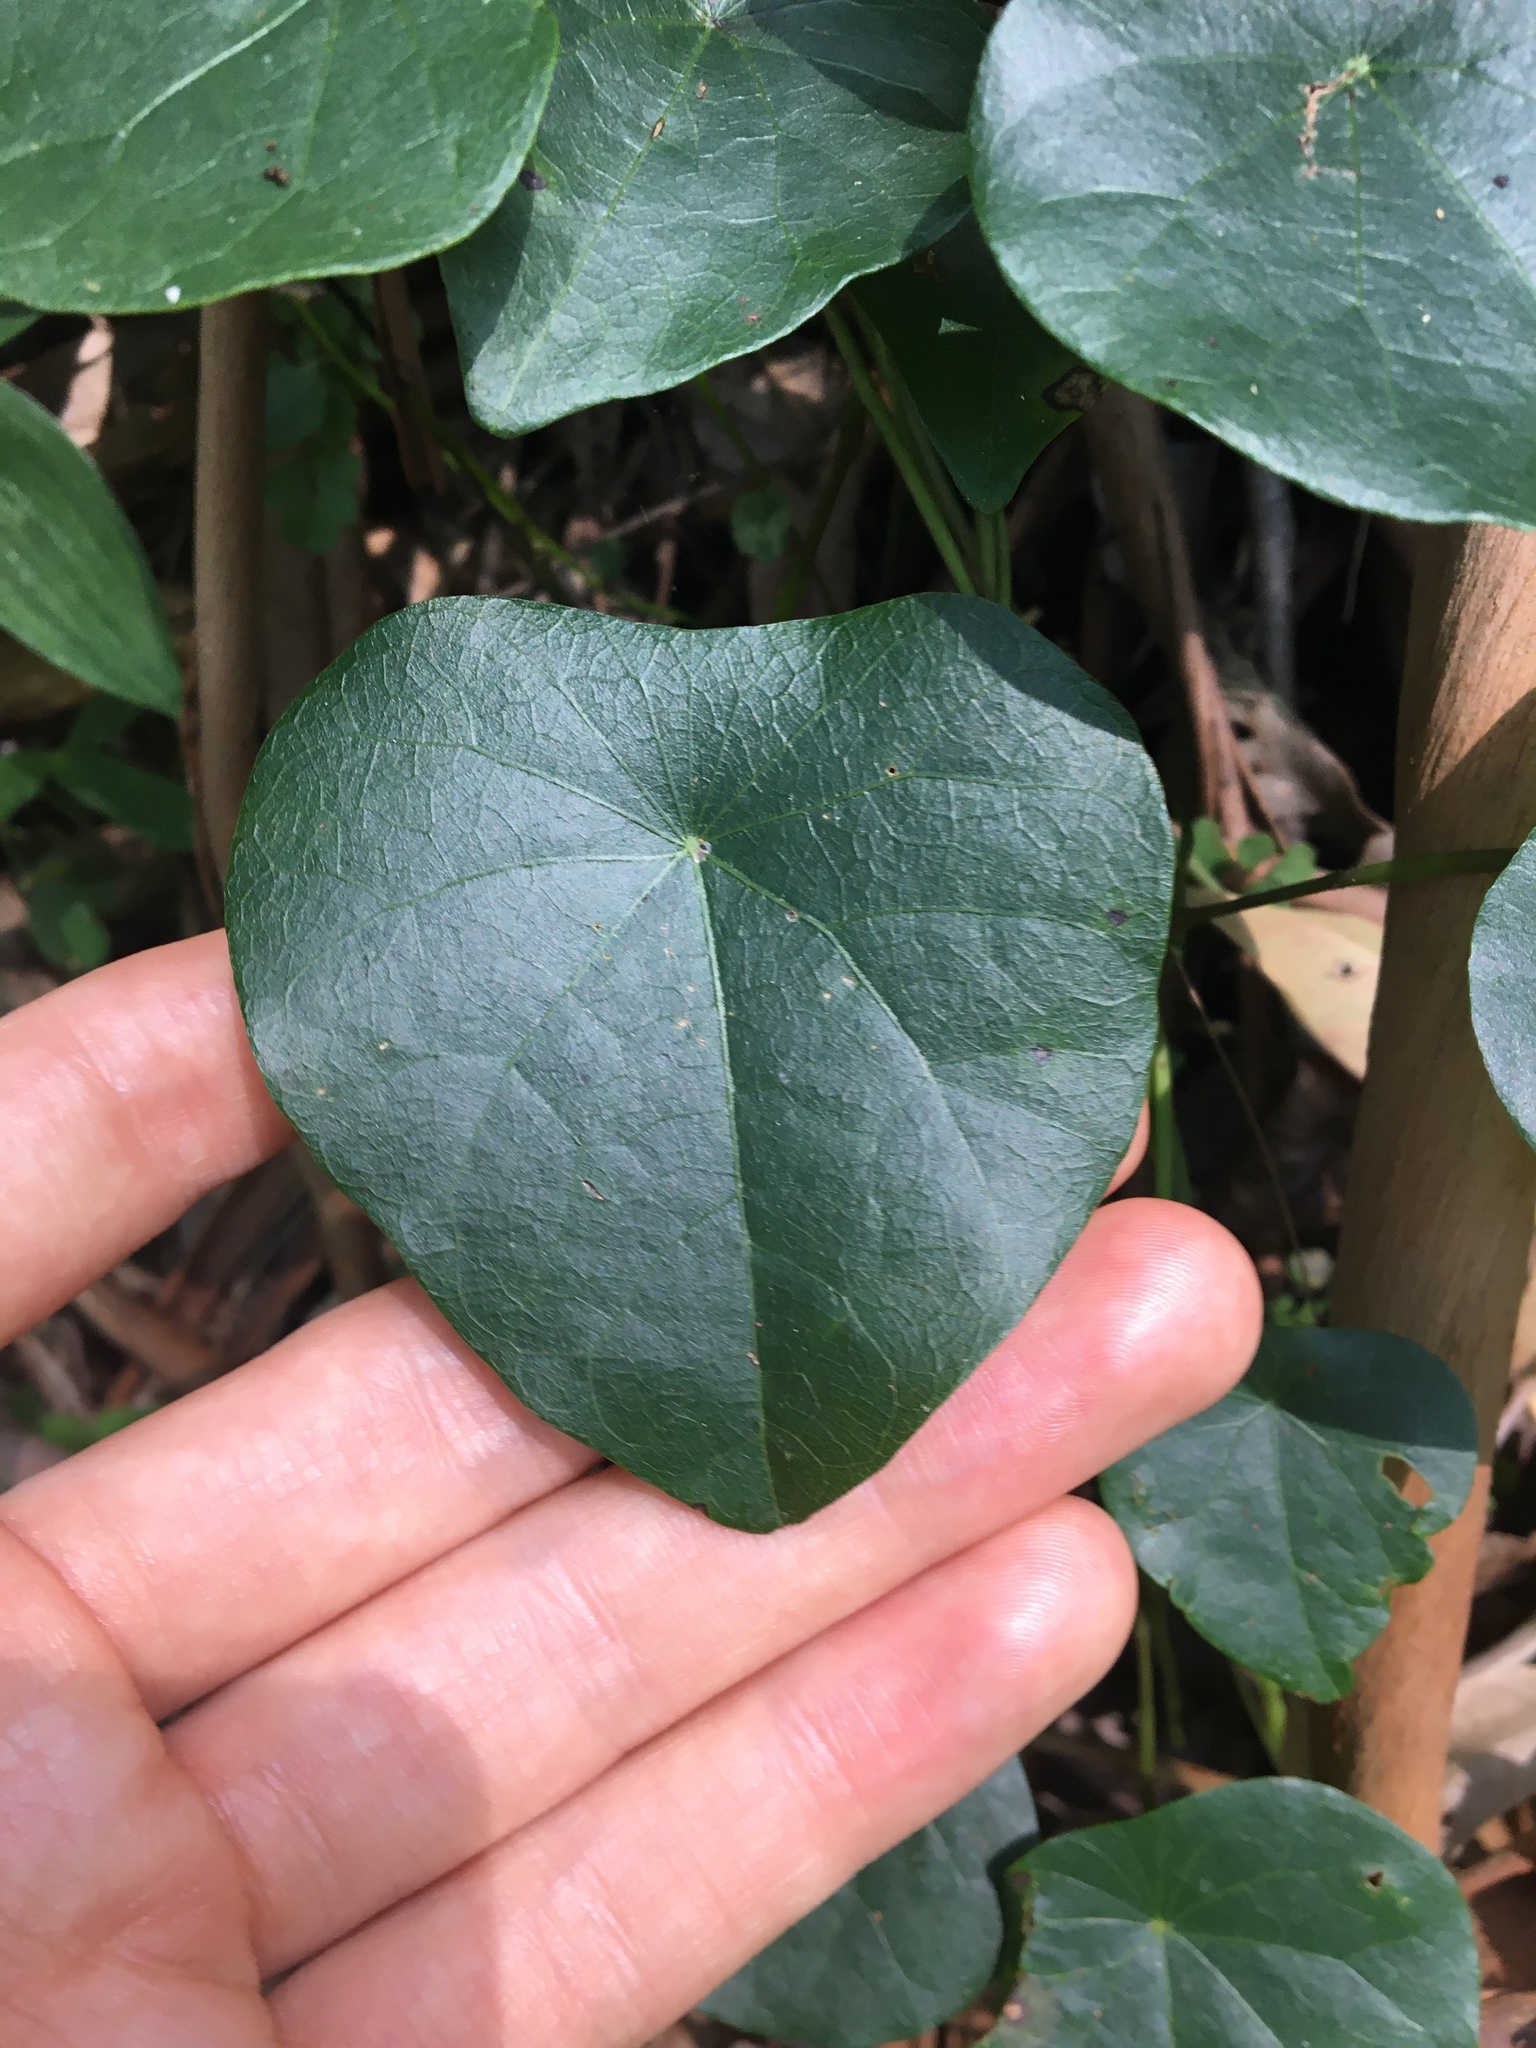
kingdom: Plantae
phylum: Tracheophyta
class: Magnoliopsida
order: Ranunculales
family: Menispermaceae
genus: Stephania
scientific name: Stephania japonica
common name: Snake vine
